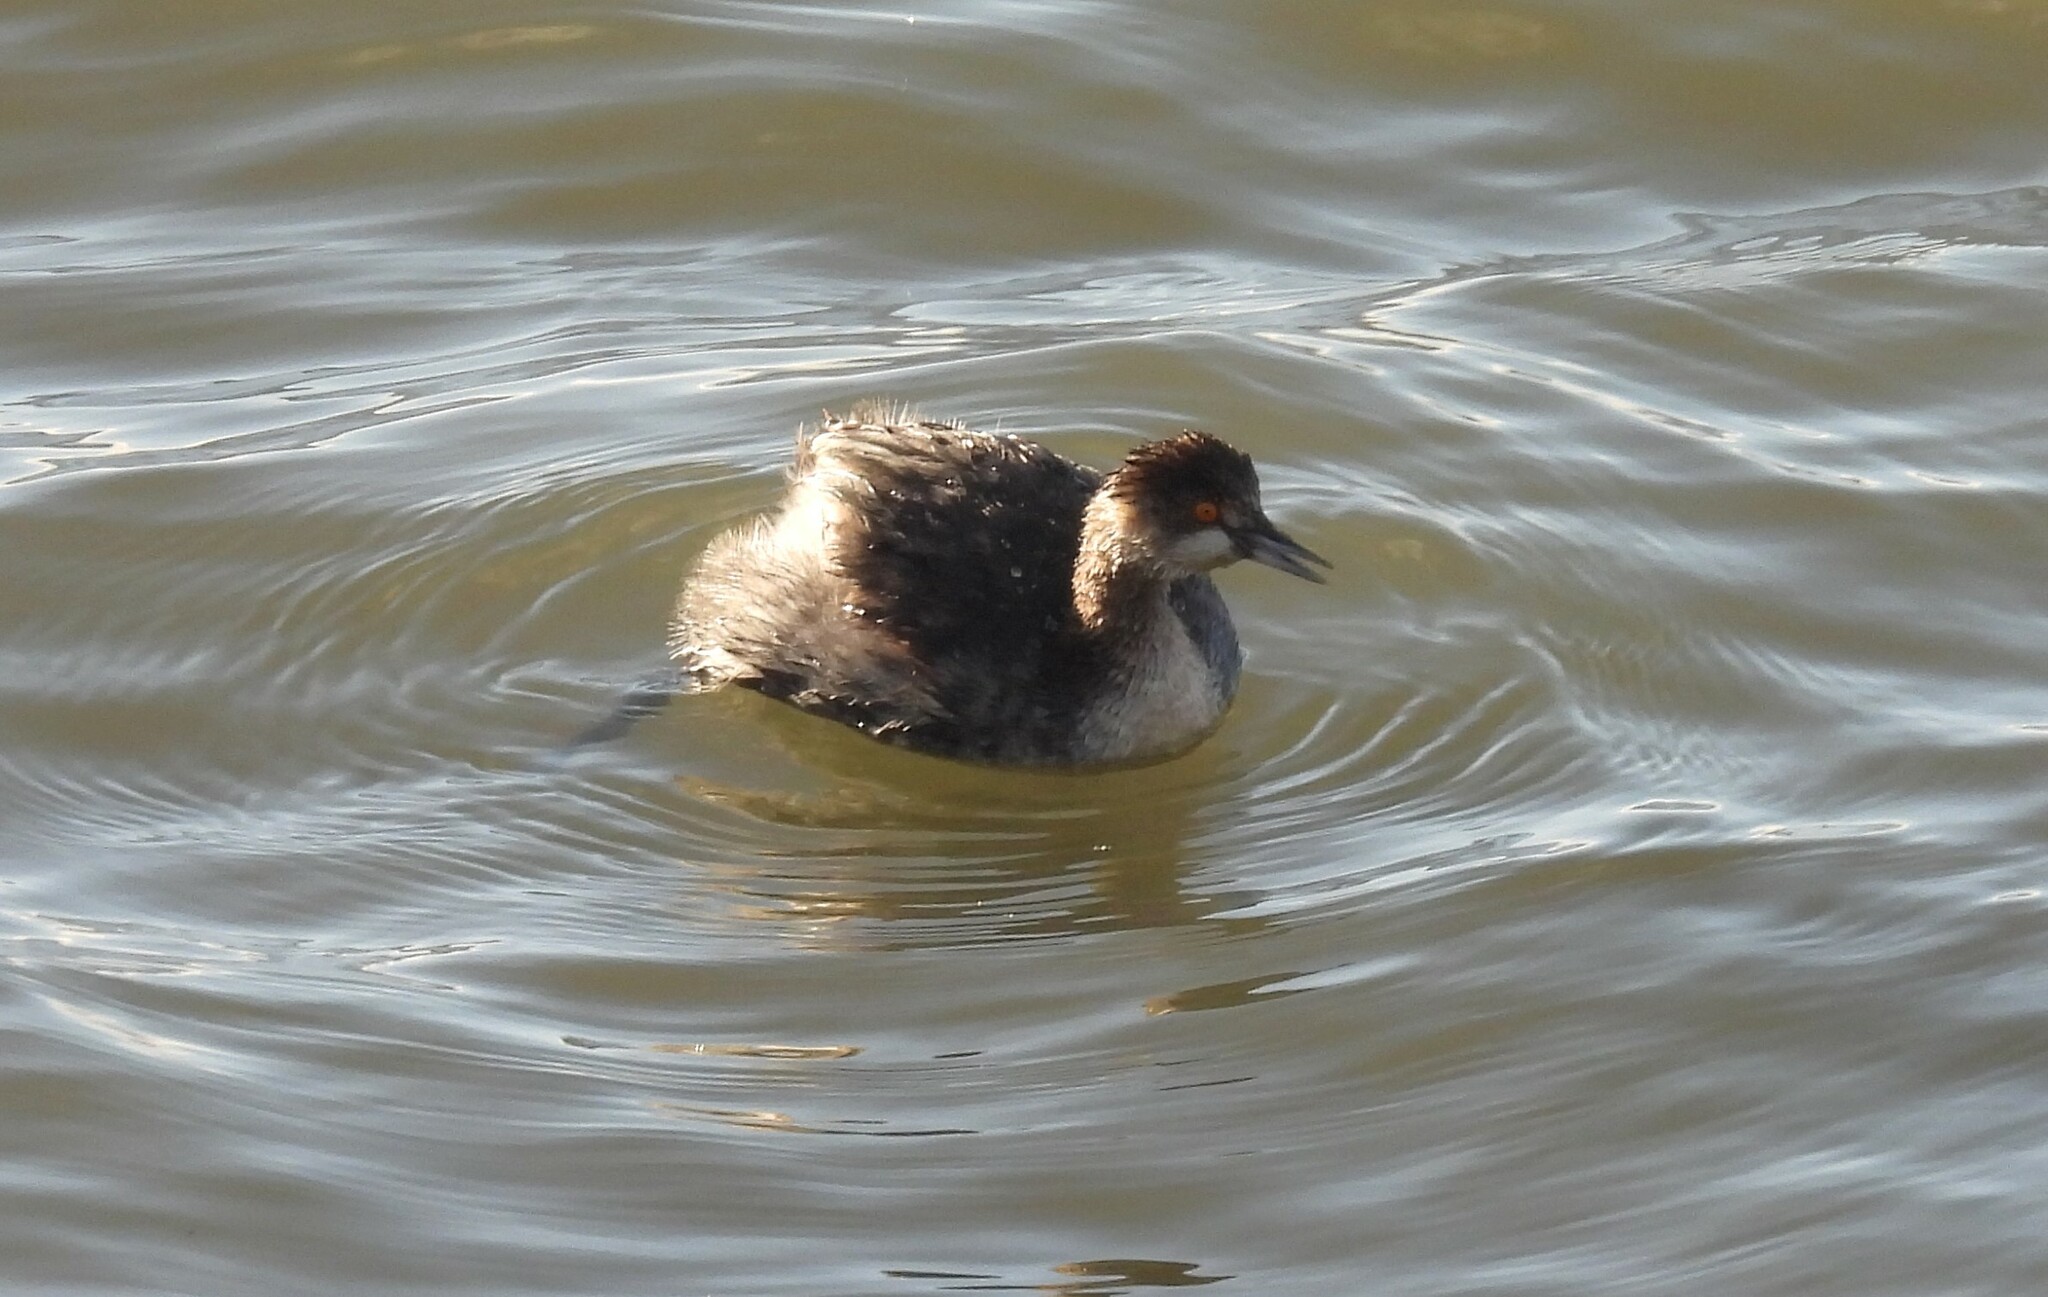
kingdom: Animalia
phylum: Chordata
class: Aves
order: Podicipediformes
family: Podicipedidae
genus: Podiceps
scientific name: Podiceps nigricollis
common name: Black-necked grebe
